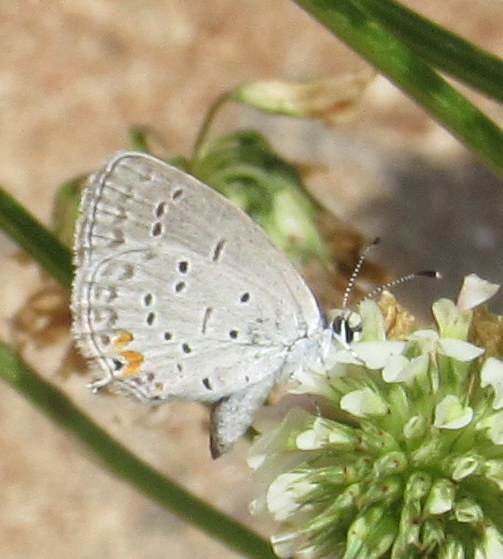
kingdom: Animalia
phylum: Arthropoda
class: Insecta
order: Lepidoptera
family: Lycaenidae
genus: Elkalyce
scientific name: Elkalyce comyntas
